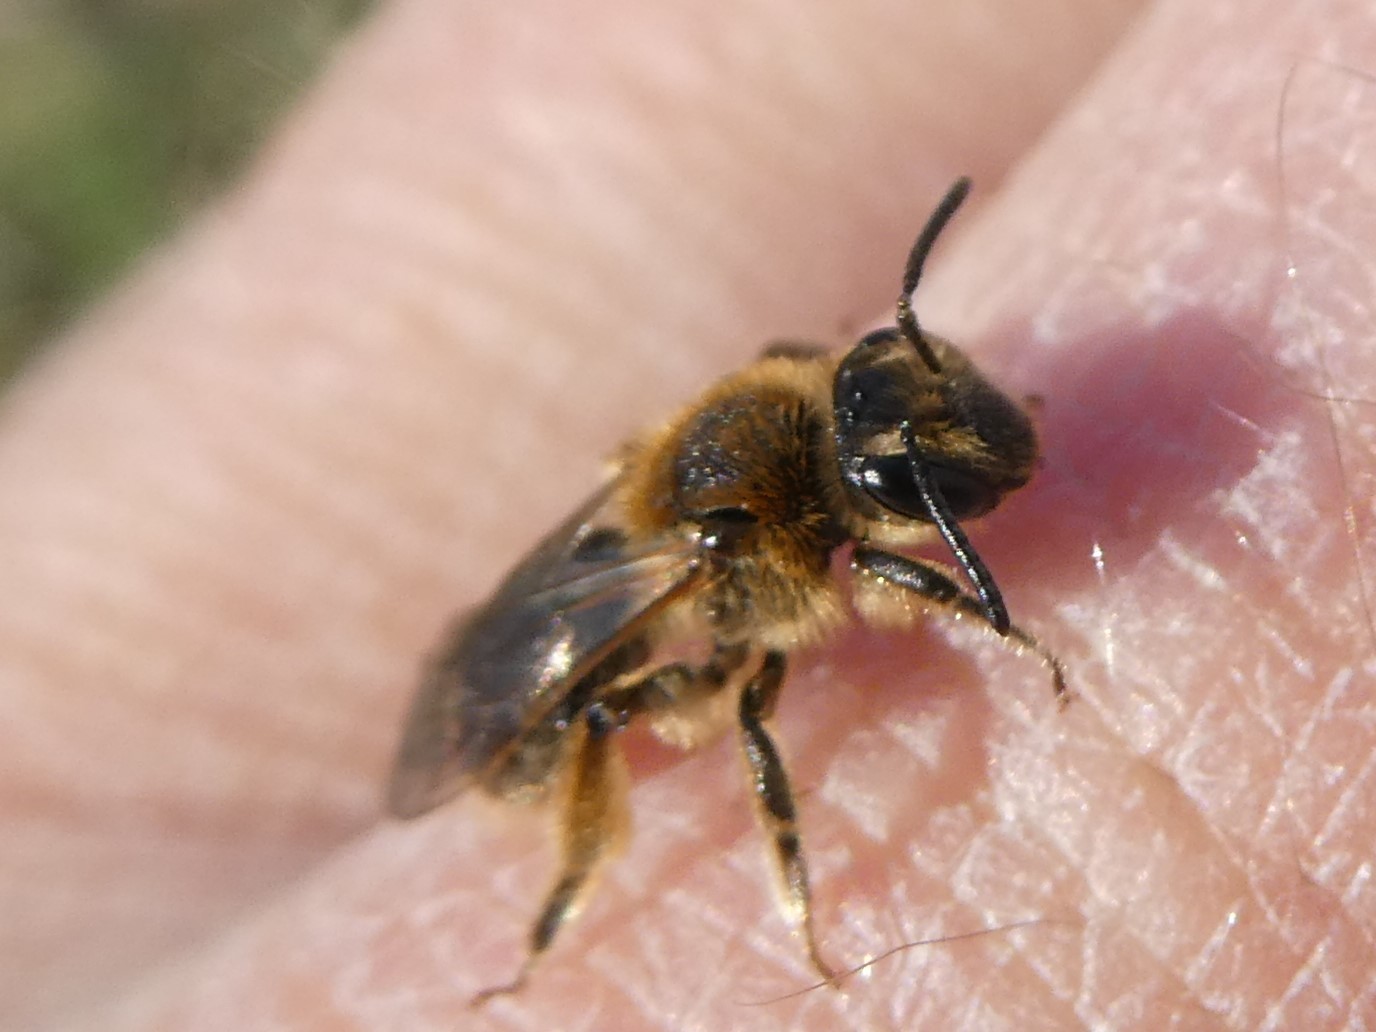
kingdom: Animalia
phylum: Arthropoda
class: Insecta
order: Hymenoptera
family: Andrenidae
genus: Andrena
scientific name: Andrena rugosa
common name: Rugose mining bee
